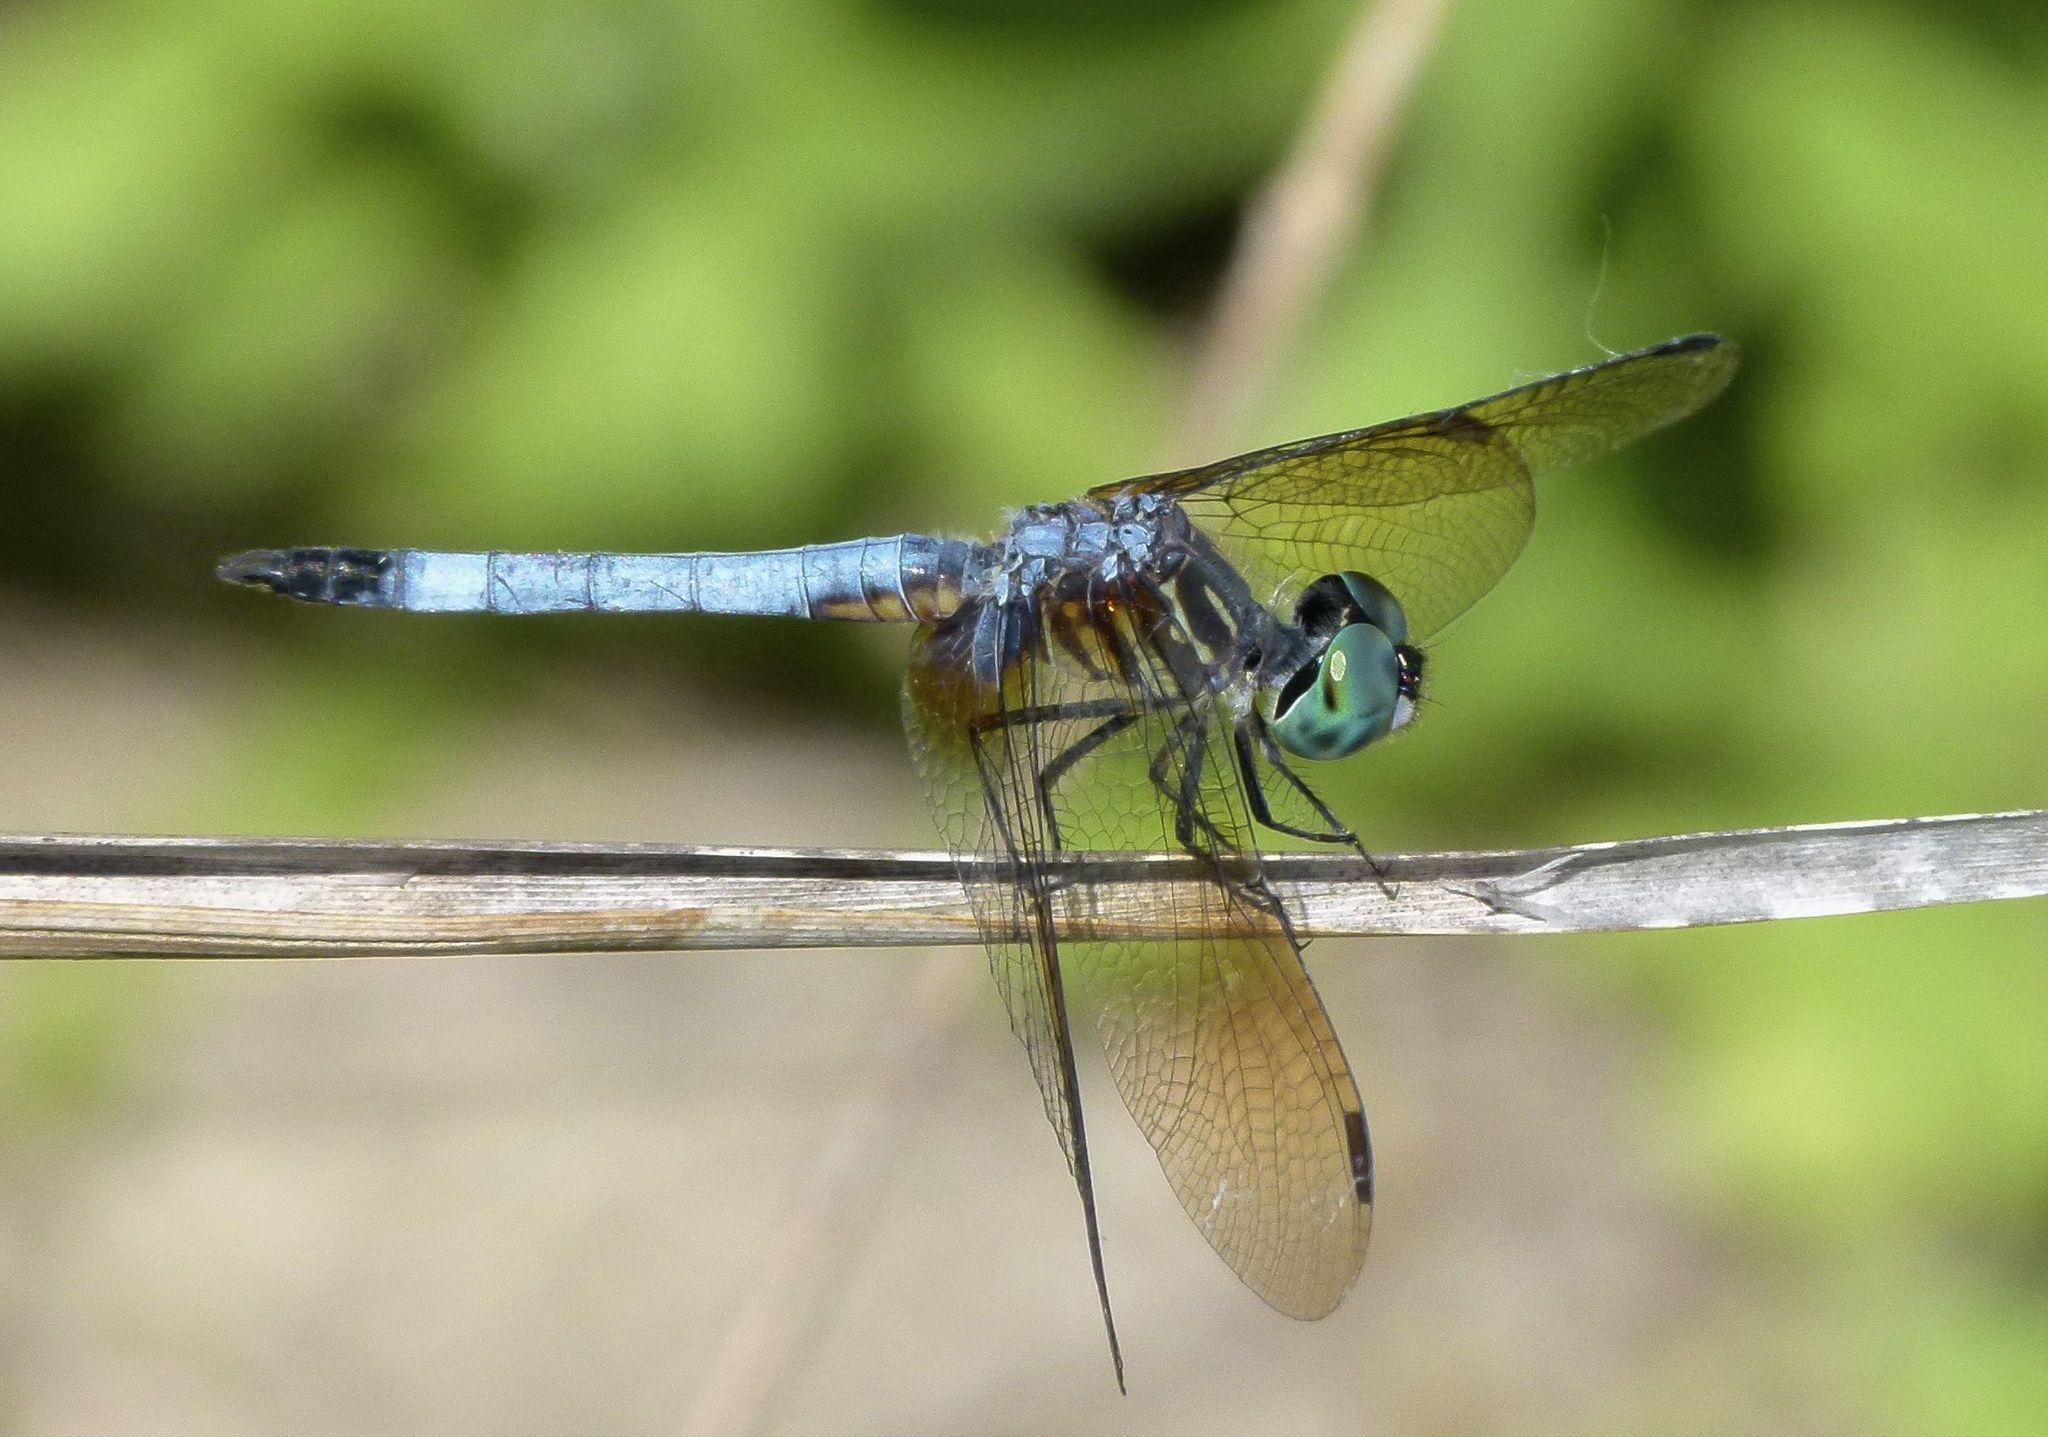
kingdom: Animalia
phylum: Arthropoda
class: Insecta
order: Odonata
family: Libellulidae
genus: Pachydiplax
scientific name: Pachydiplax longipennis
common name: Blue dasher
